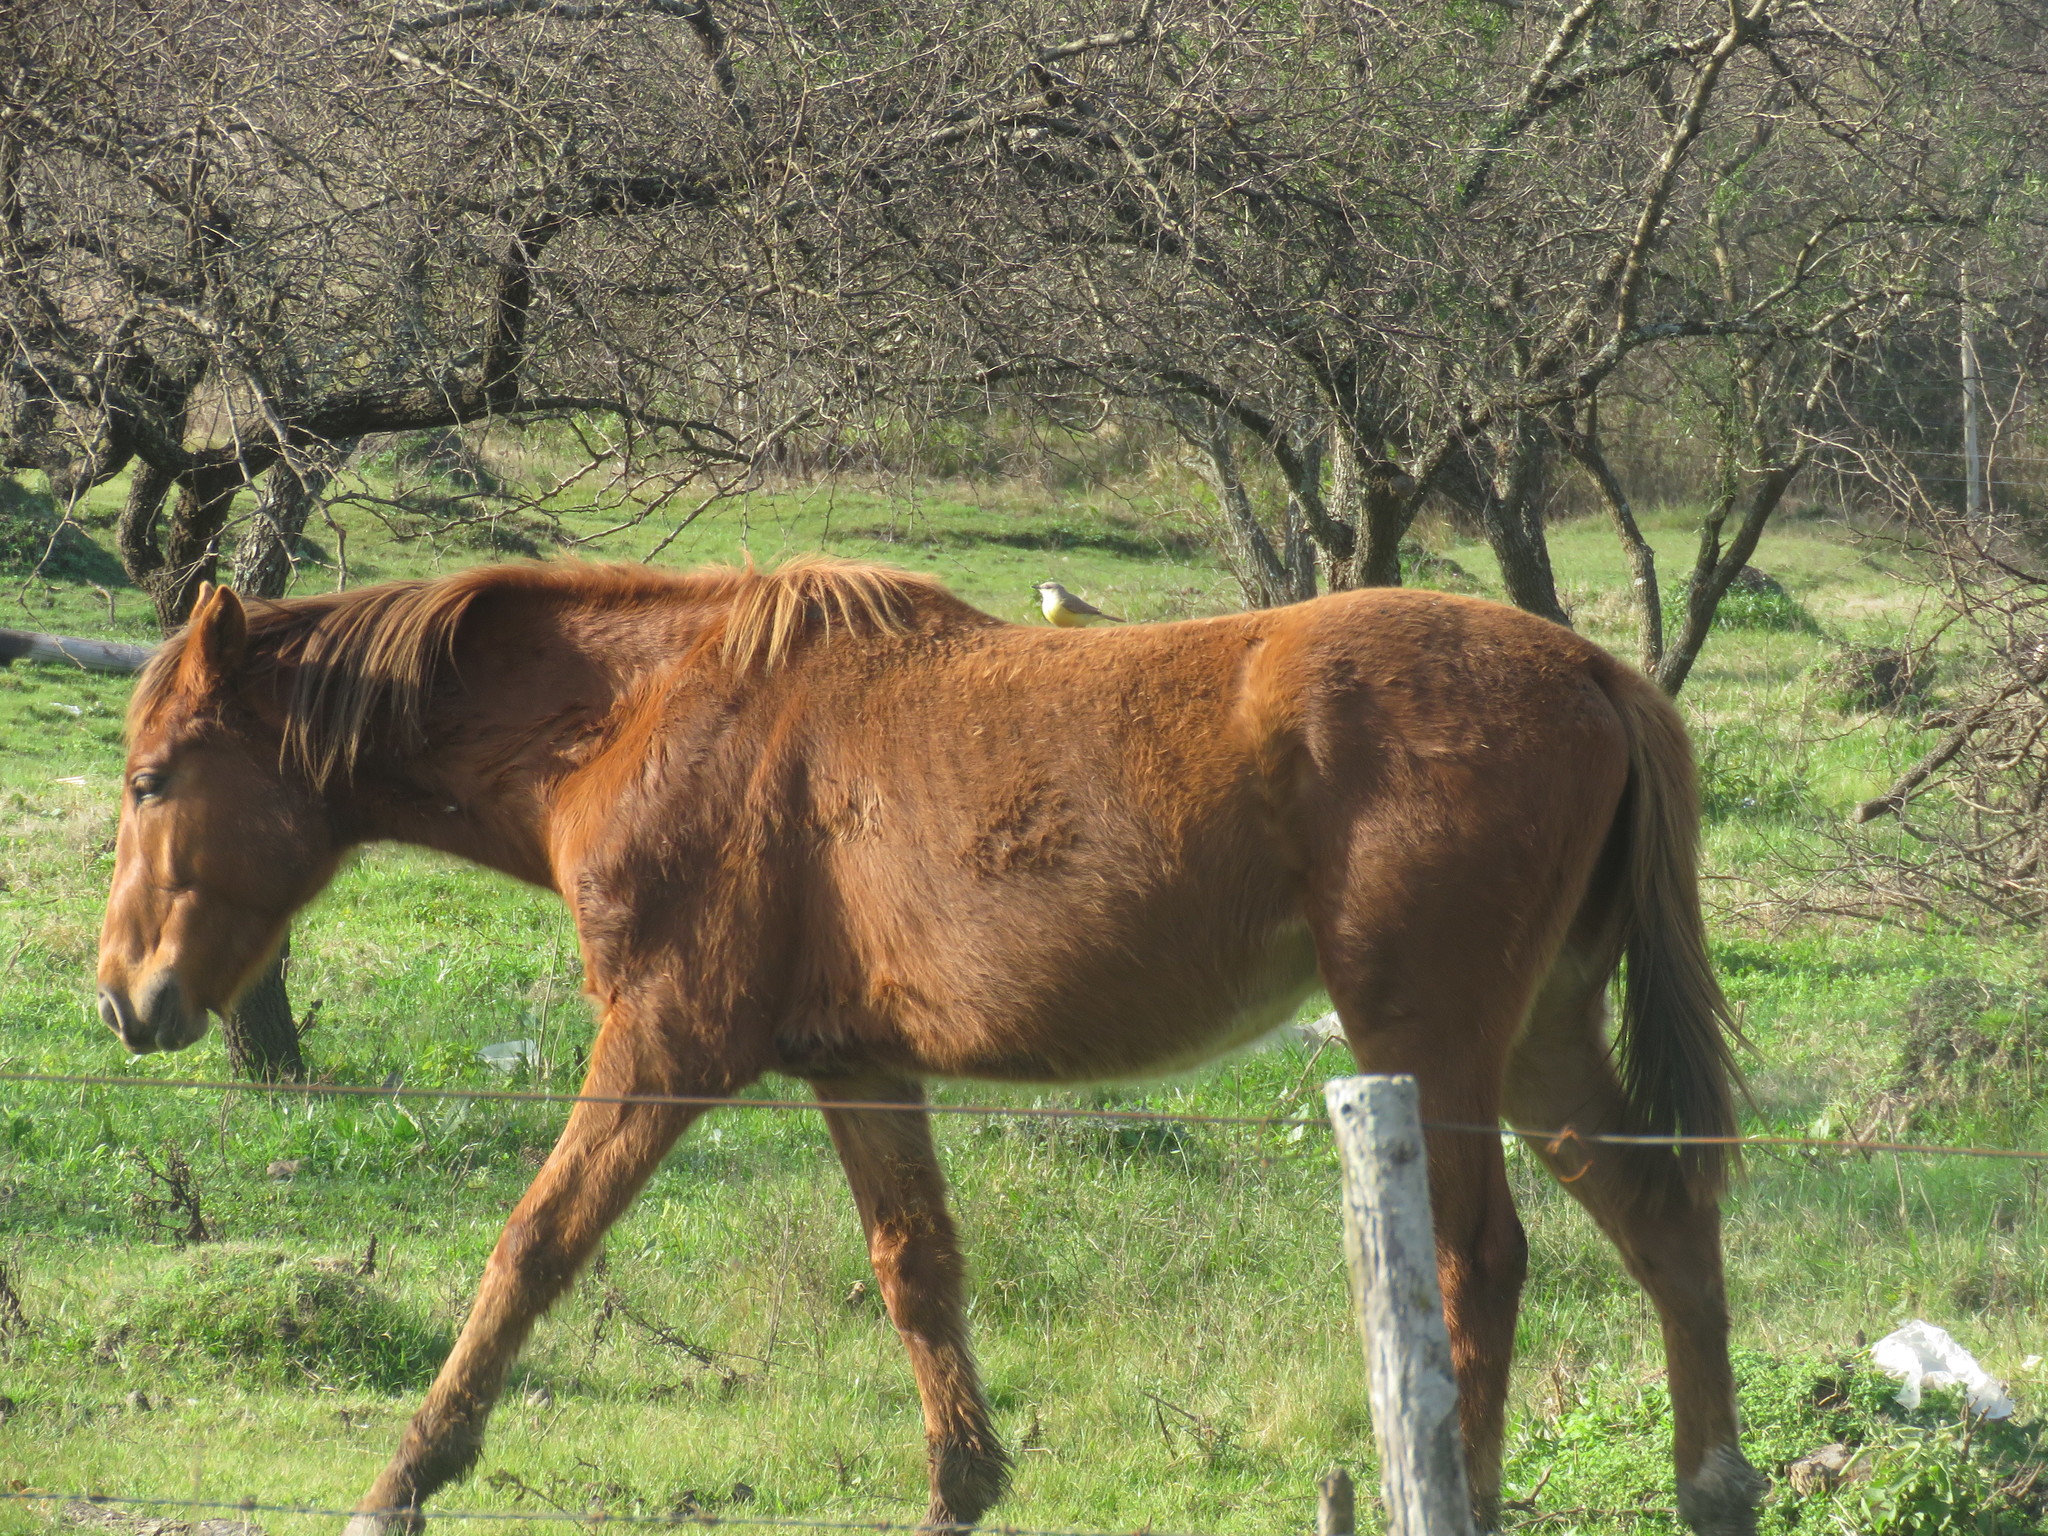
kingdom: Animalia
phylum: Chordata
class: Aves
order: Passeriformes
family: Tyrannidae
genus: Machetornis
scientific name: Machetornis rixosa
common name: Cattle tyrant
